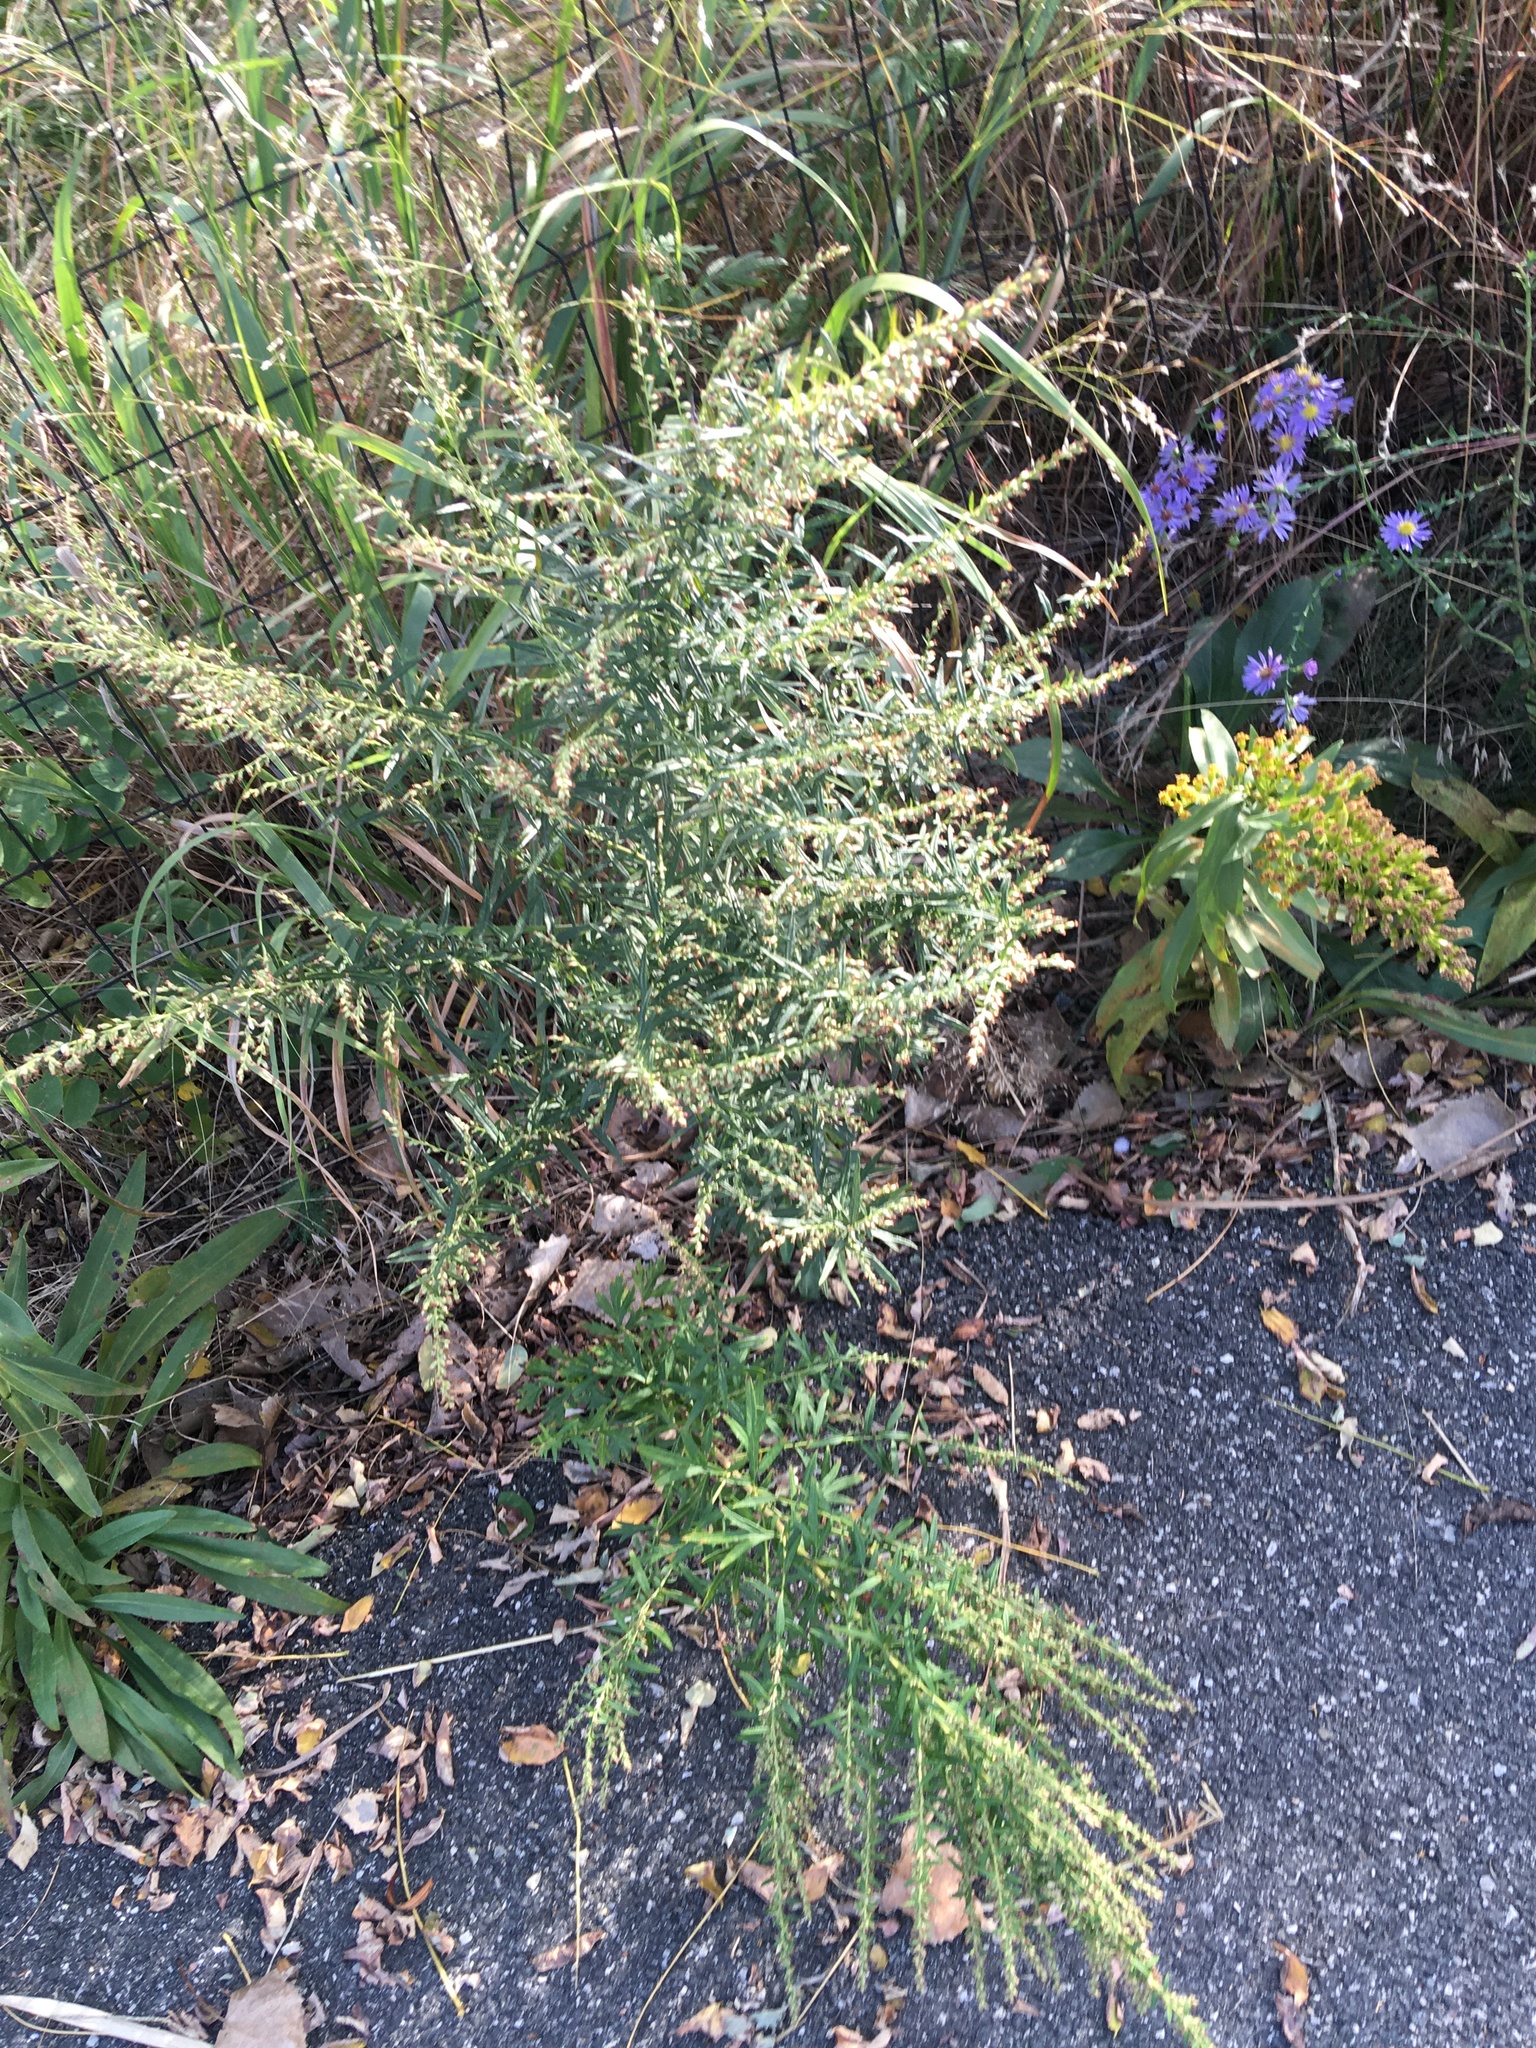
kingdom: Plantae
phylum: Tracheophyta
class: Magnoliopsida
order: Asterales
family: Asteraceae
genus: Artemisia
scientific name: Artemisia vulgaris
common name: Mugwort
